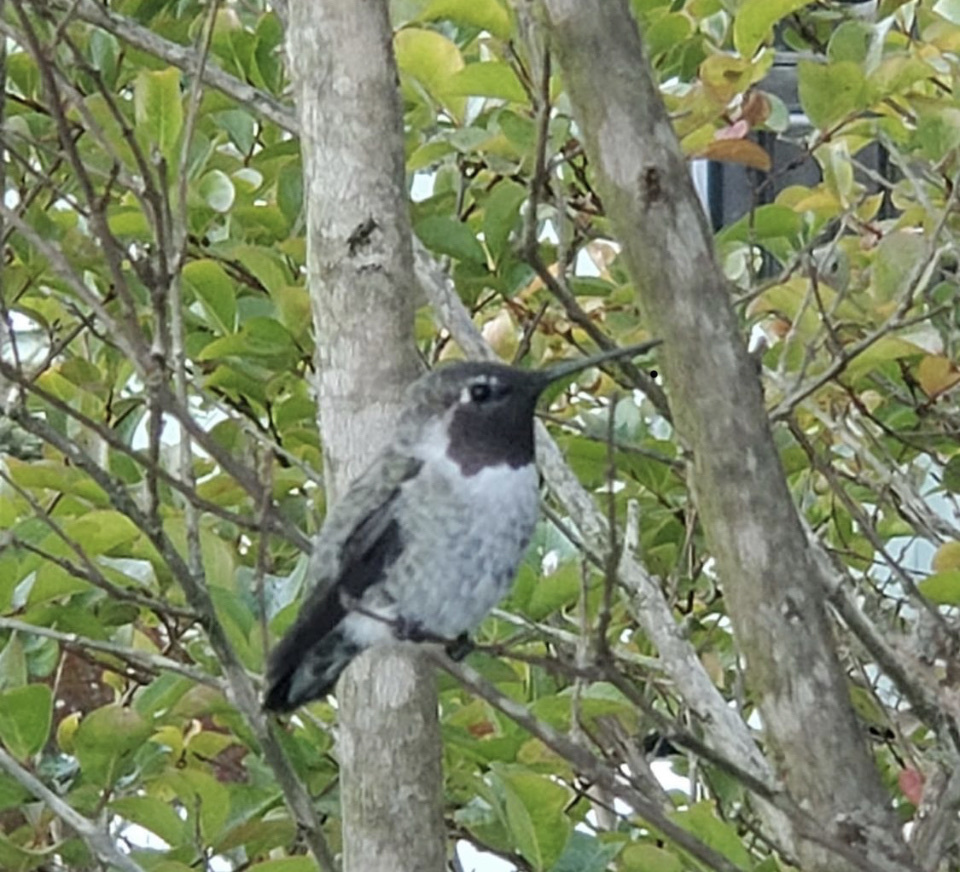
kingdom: Animalia
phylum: Chordata
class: Aves
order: Apodiformes
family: Trochilidae
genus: Calypte
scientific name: Calypte anna
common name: Anna's hummingbird
